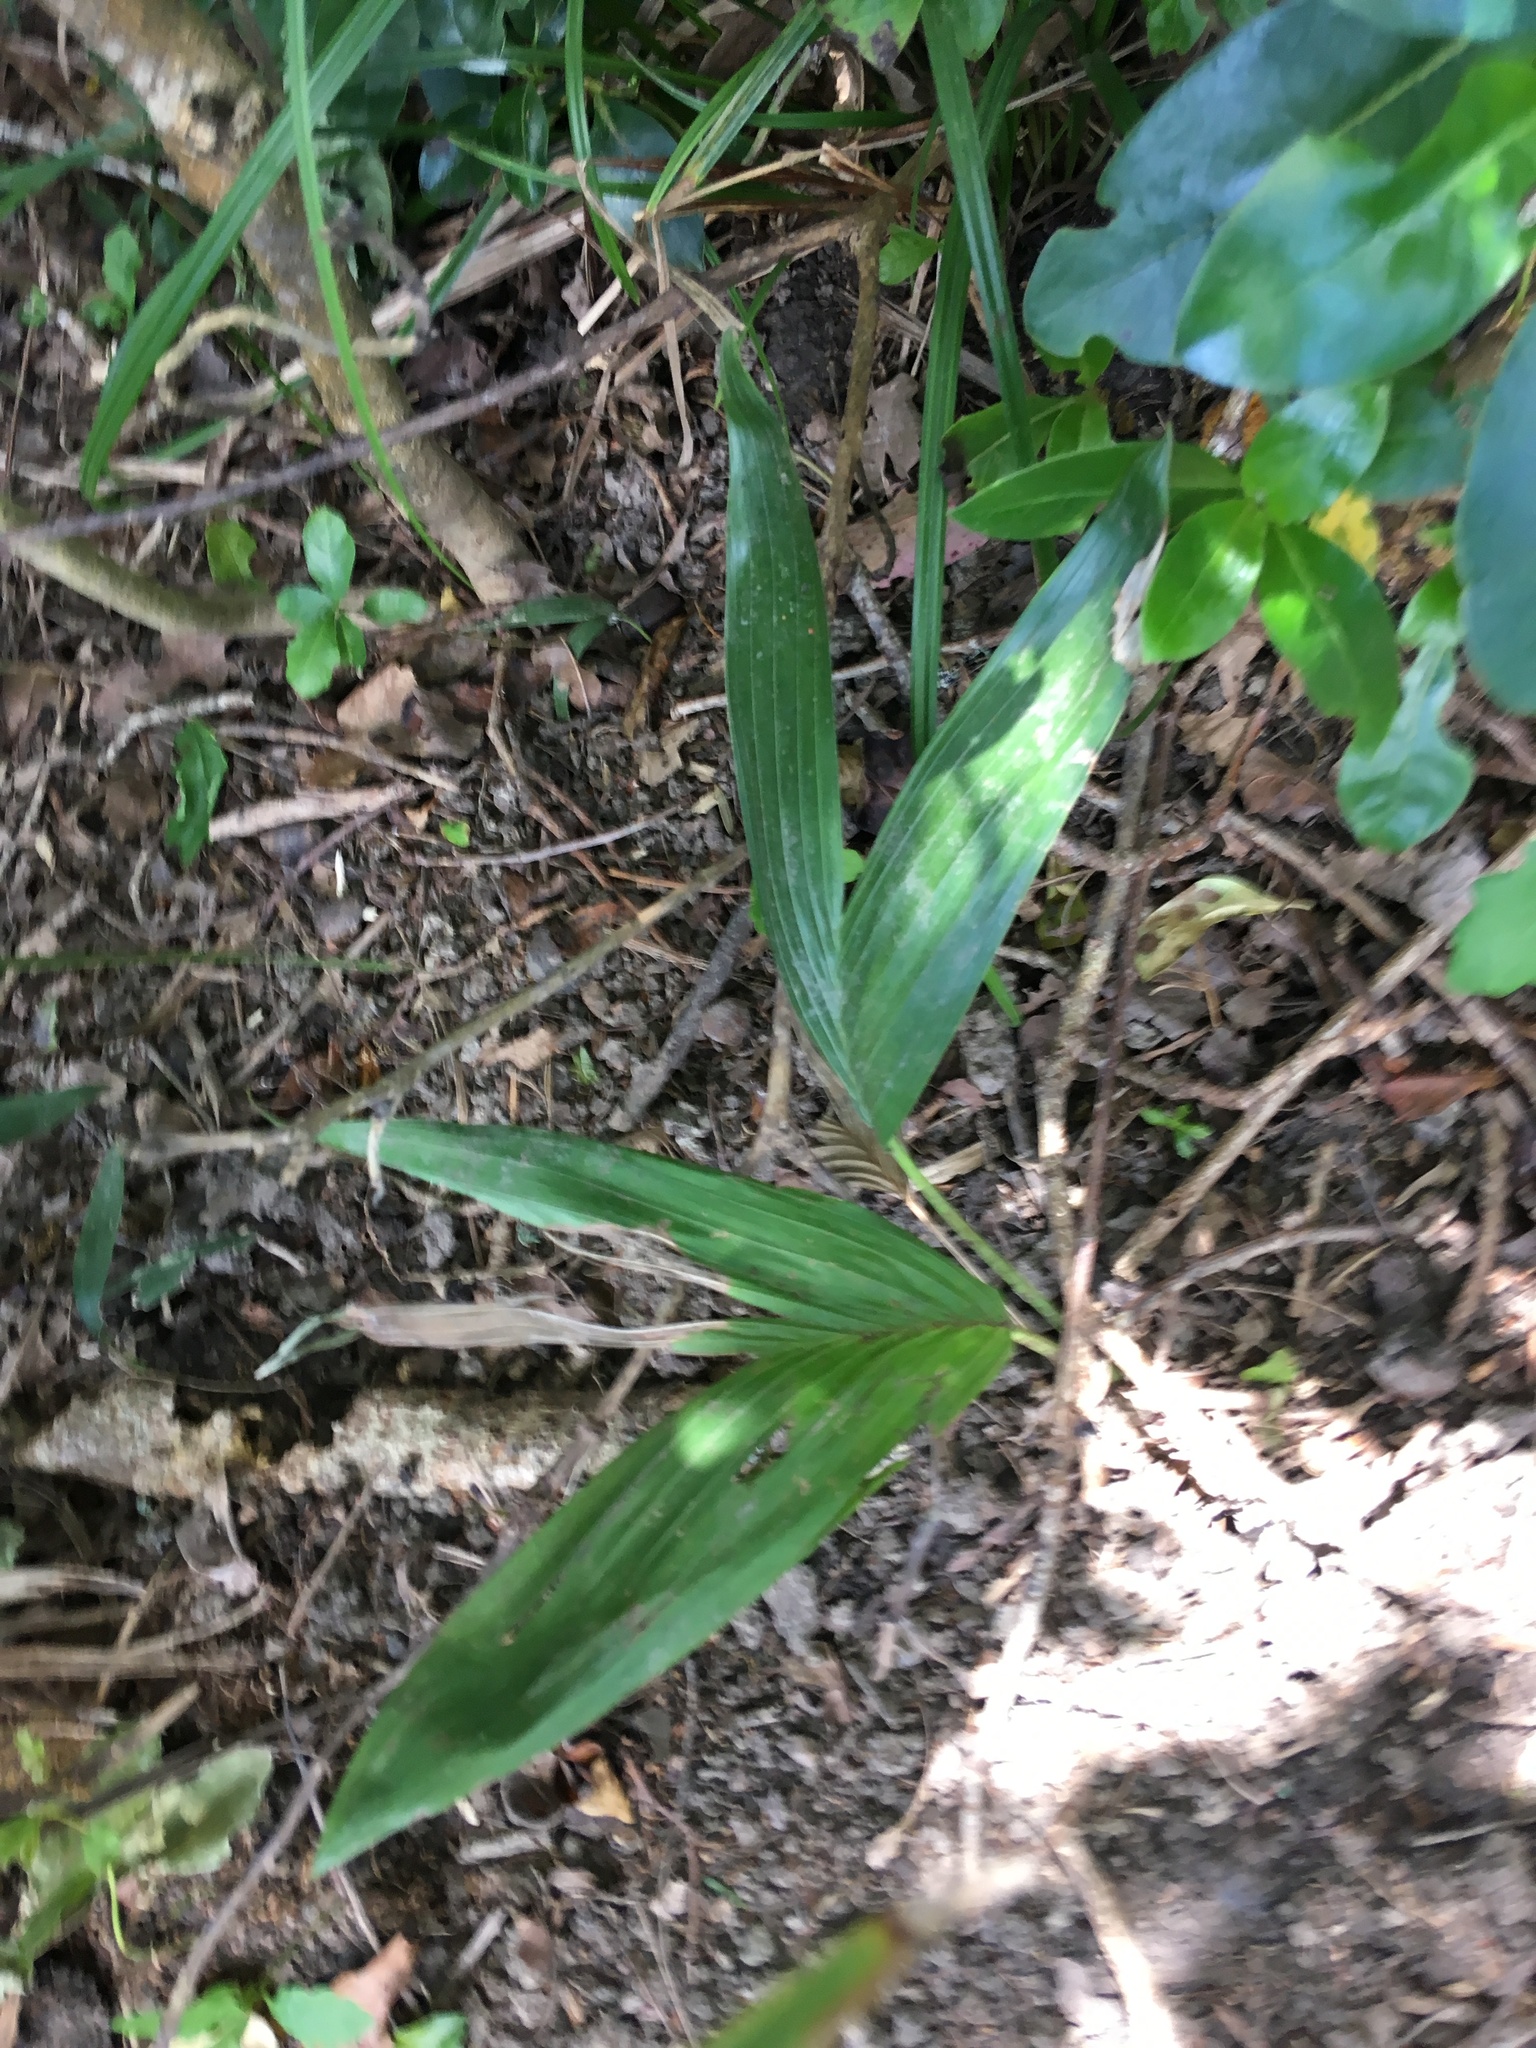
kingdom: Plantae
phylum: Tracheophyta
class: Liliopsida
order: Arecales
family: Arecaceae
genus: Archontophoenix
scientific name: Archontophoenix cunninghamiana
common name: Piccabeen bangalow palm
